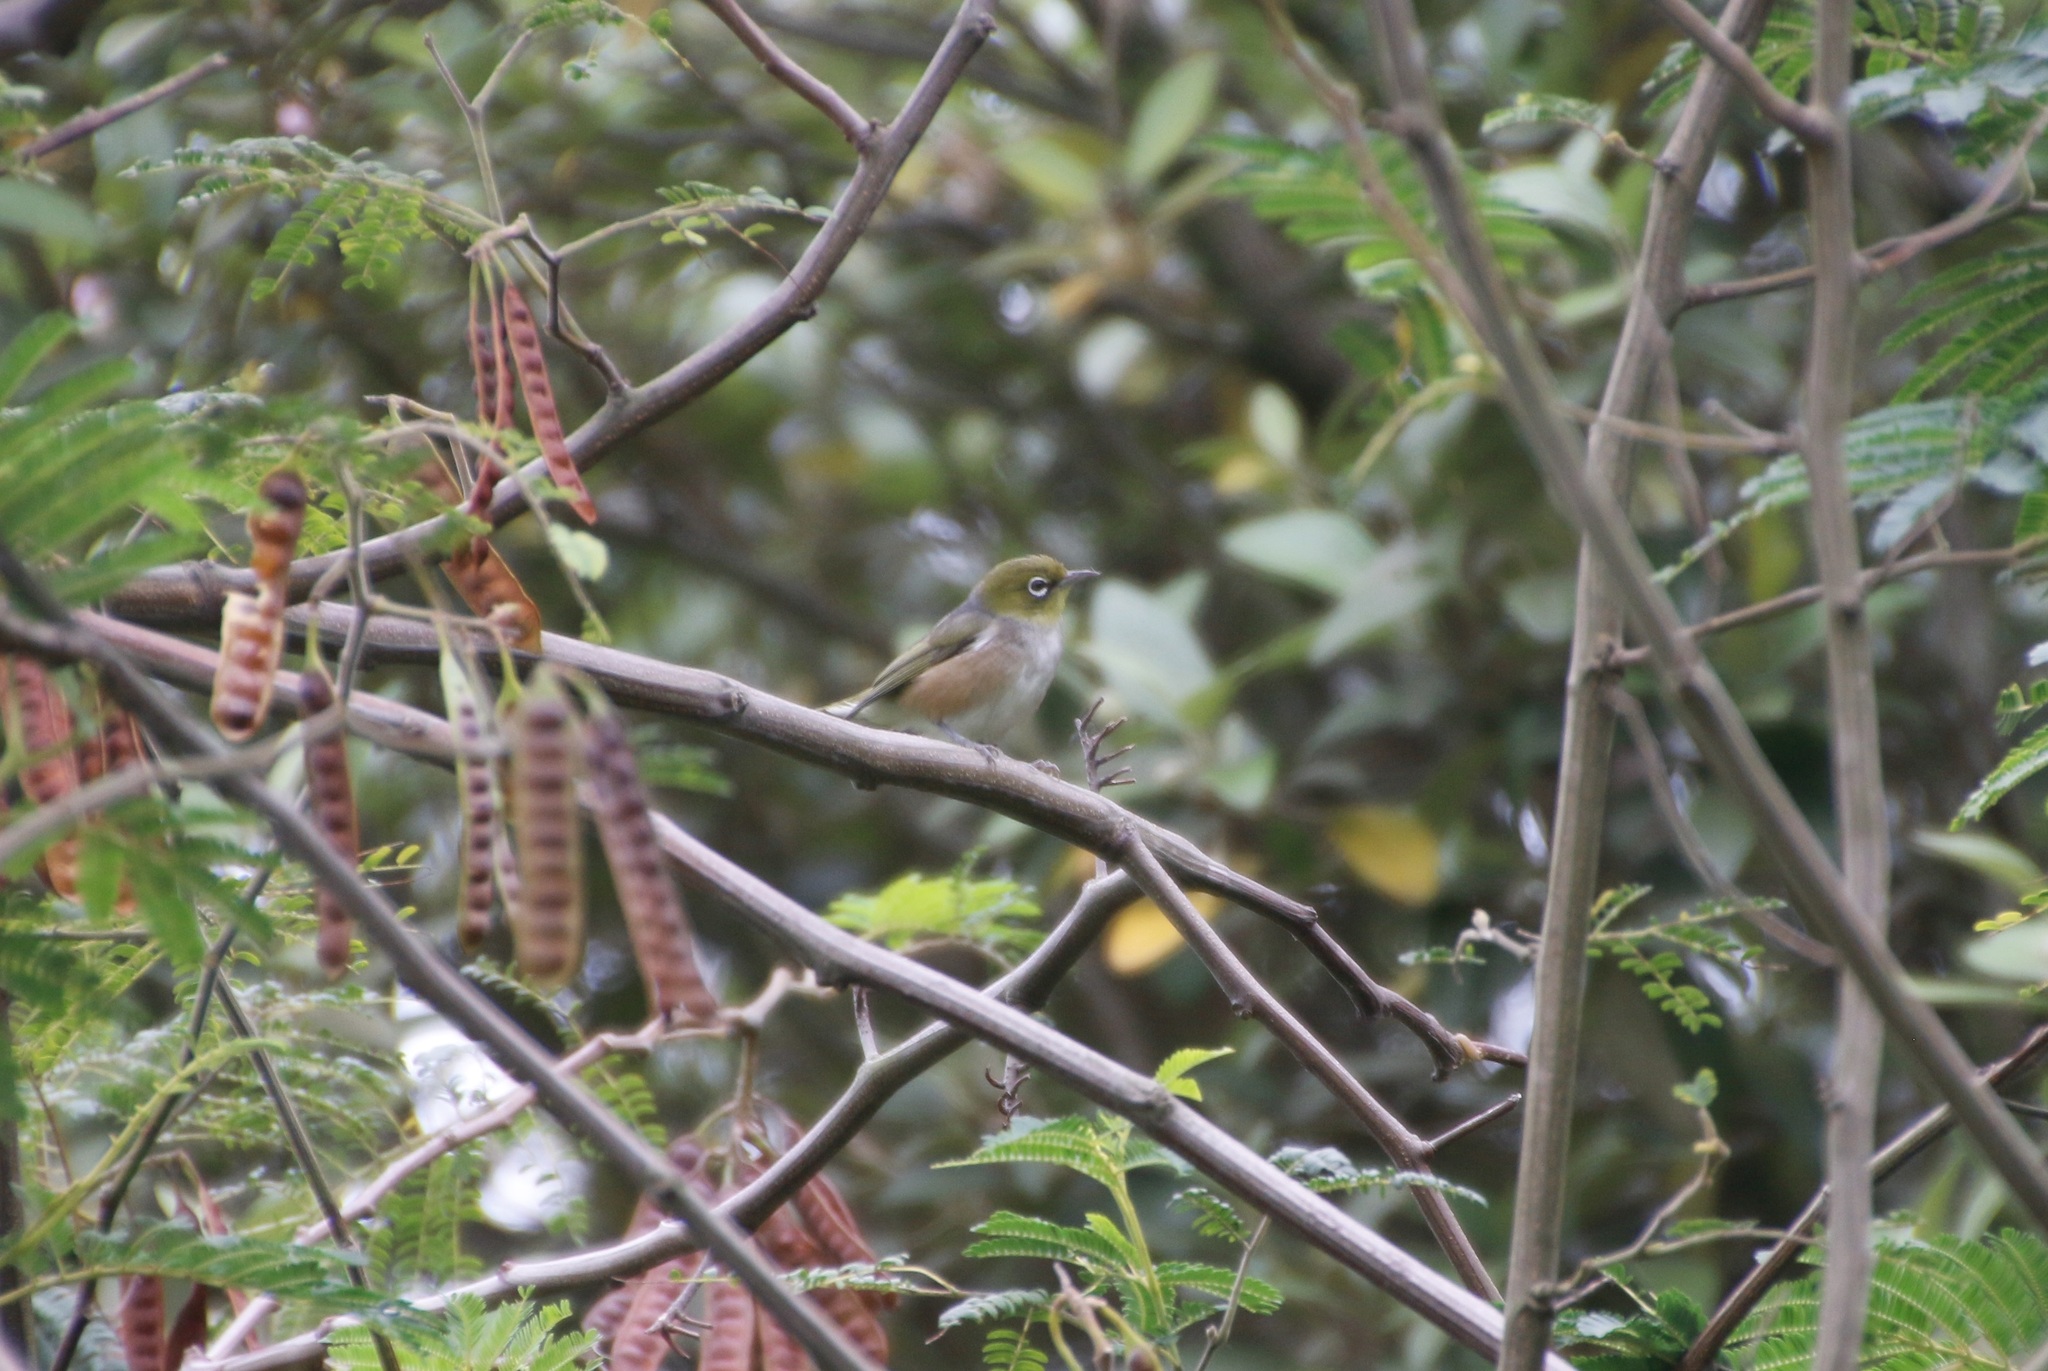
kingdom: Animalia
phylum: Chordata
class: Aves
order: Passeriformes
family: Zosteropidae
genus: Zosterops
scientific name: Zosterops lateralis
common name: Silvereye
